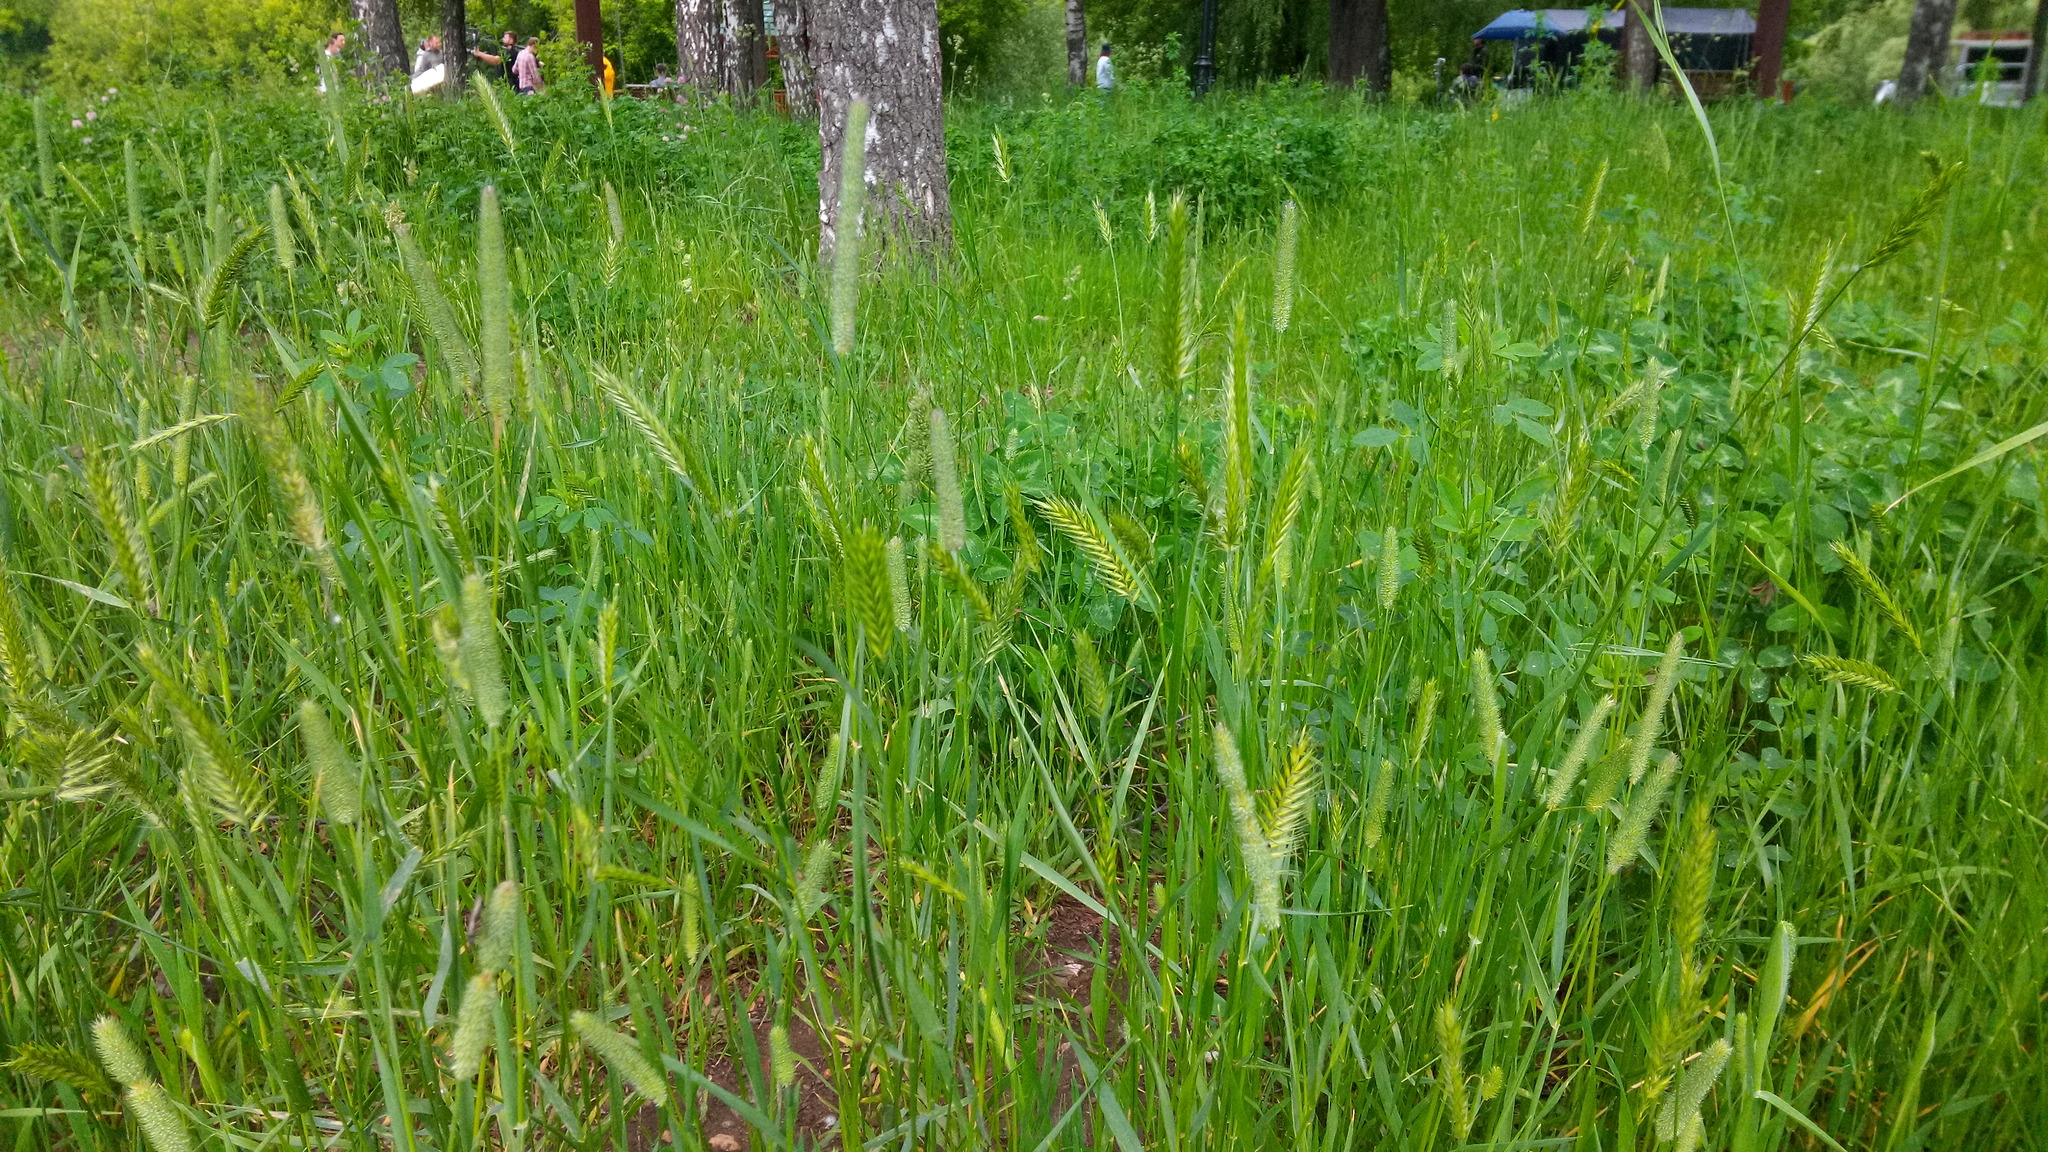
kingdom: Plantae
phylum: Tracheophyta
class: Liliopsida
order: Poales
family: Poaceae
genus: Agropyron
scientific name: Agropyron cristatum
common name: Crested wheatgrass
